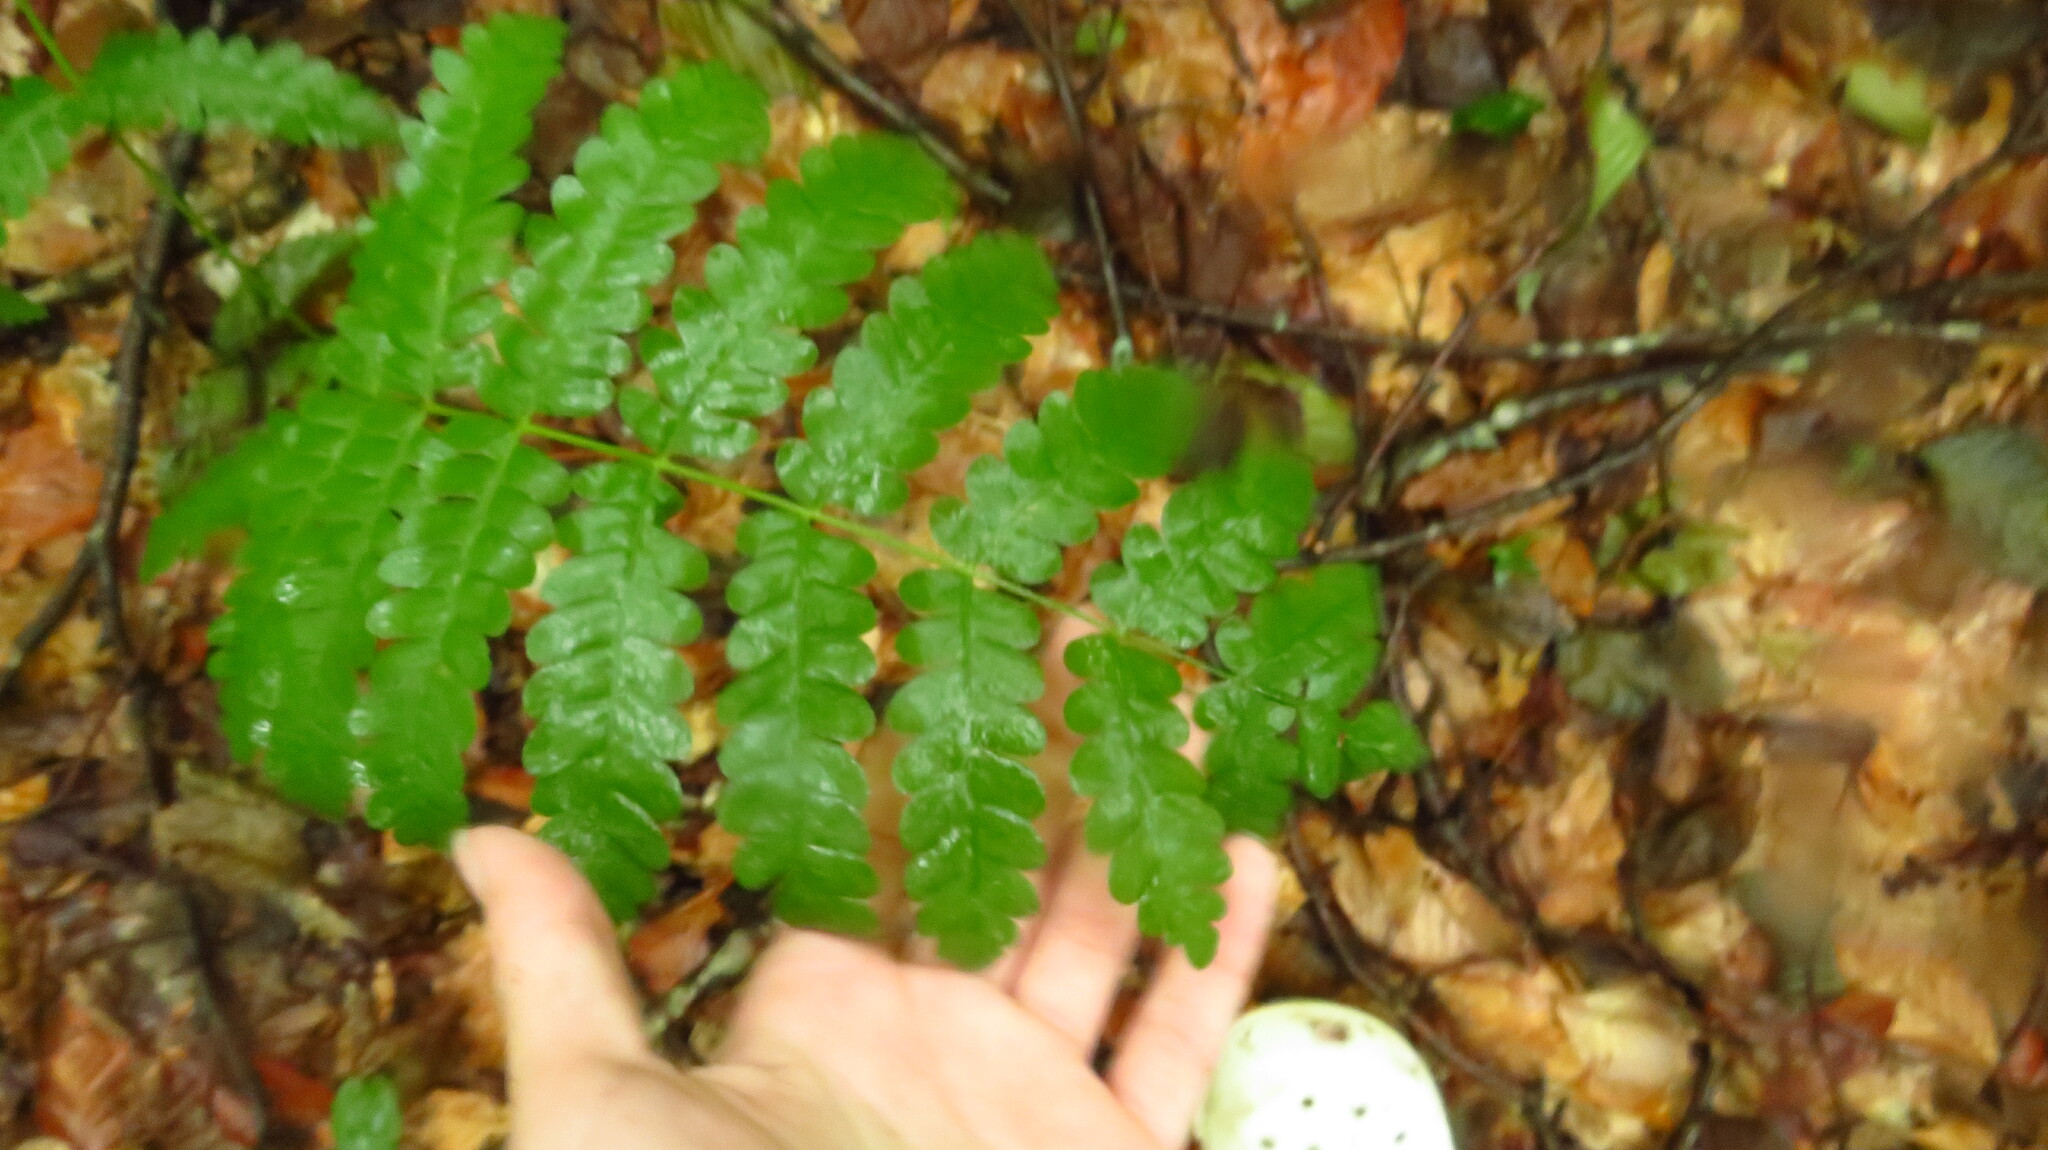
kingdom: Plantae
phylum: Tracheophyta
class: Polypodiopsida
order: Osmundales
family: Osmundaceae
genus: Claytosmunda
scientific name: Claytosmunda claytoniana
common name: Clayton's fern
